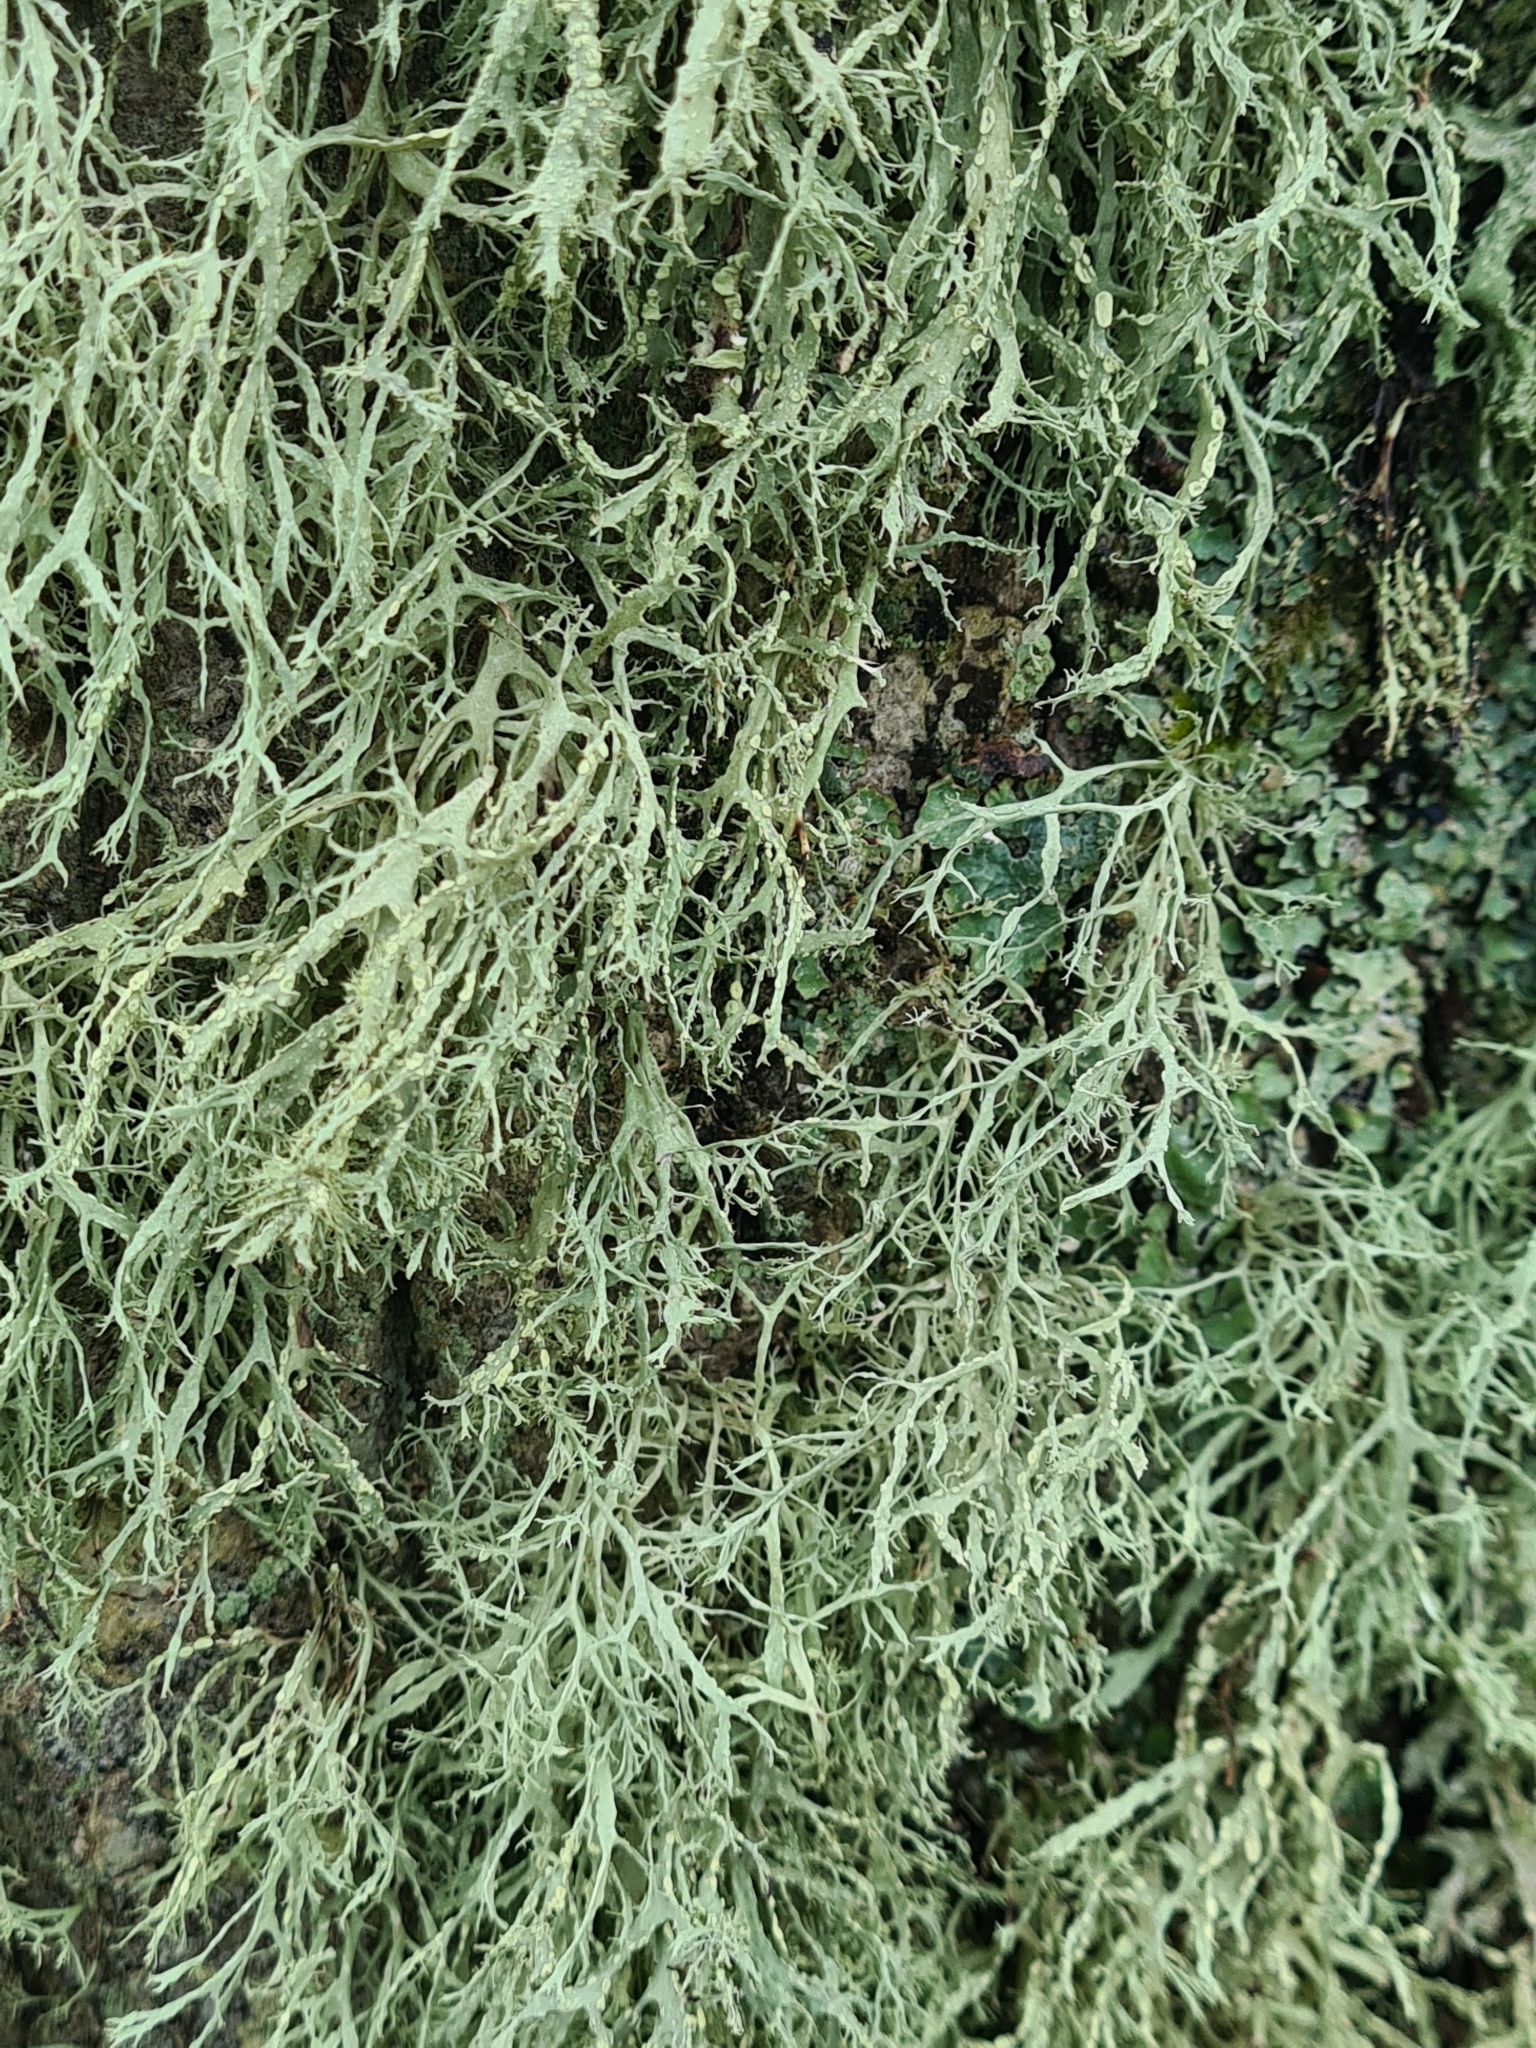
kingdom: Fungi
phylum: Ascomycota
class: Lecanoromycetes
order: Lecanorales
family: Ramalinaceae
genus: Ramalina
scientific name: Ramalina farinacea
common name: Farinose cartilage lichen
